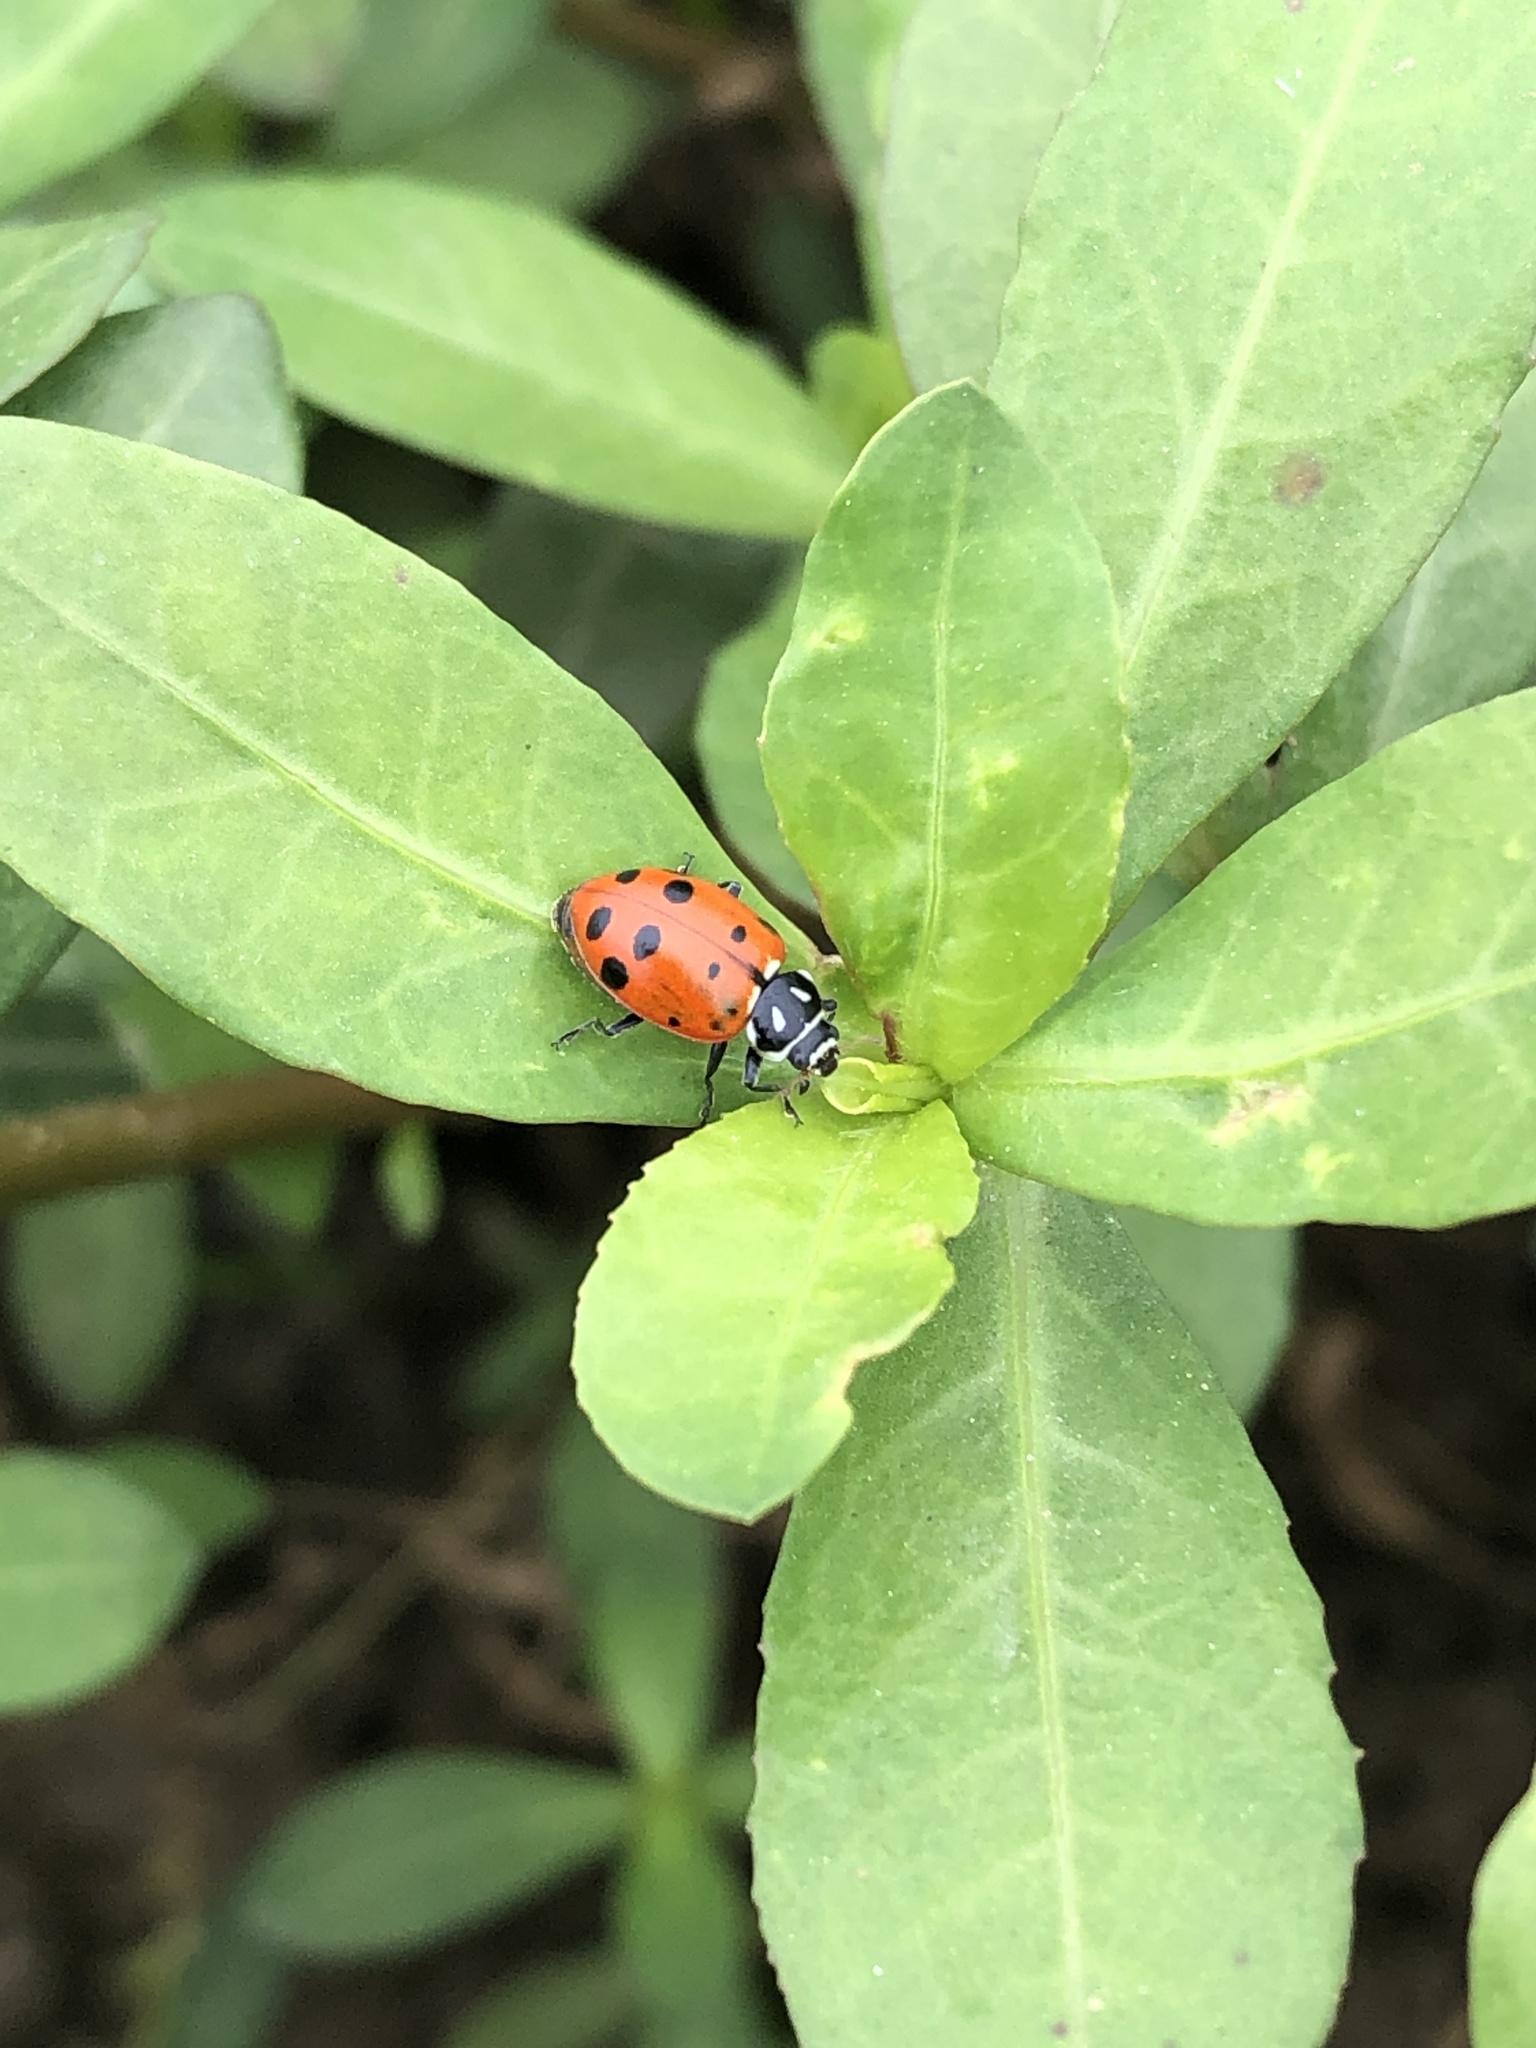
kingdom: Animalia
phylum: Arthropoda
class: Insecta
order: Coleoptera
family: Coccinellidae
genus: Hippodamia
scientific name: Hippodamia convergens
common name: Convergent lady beetle
